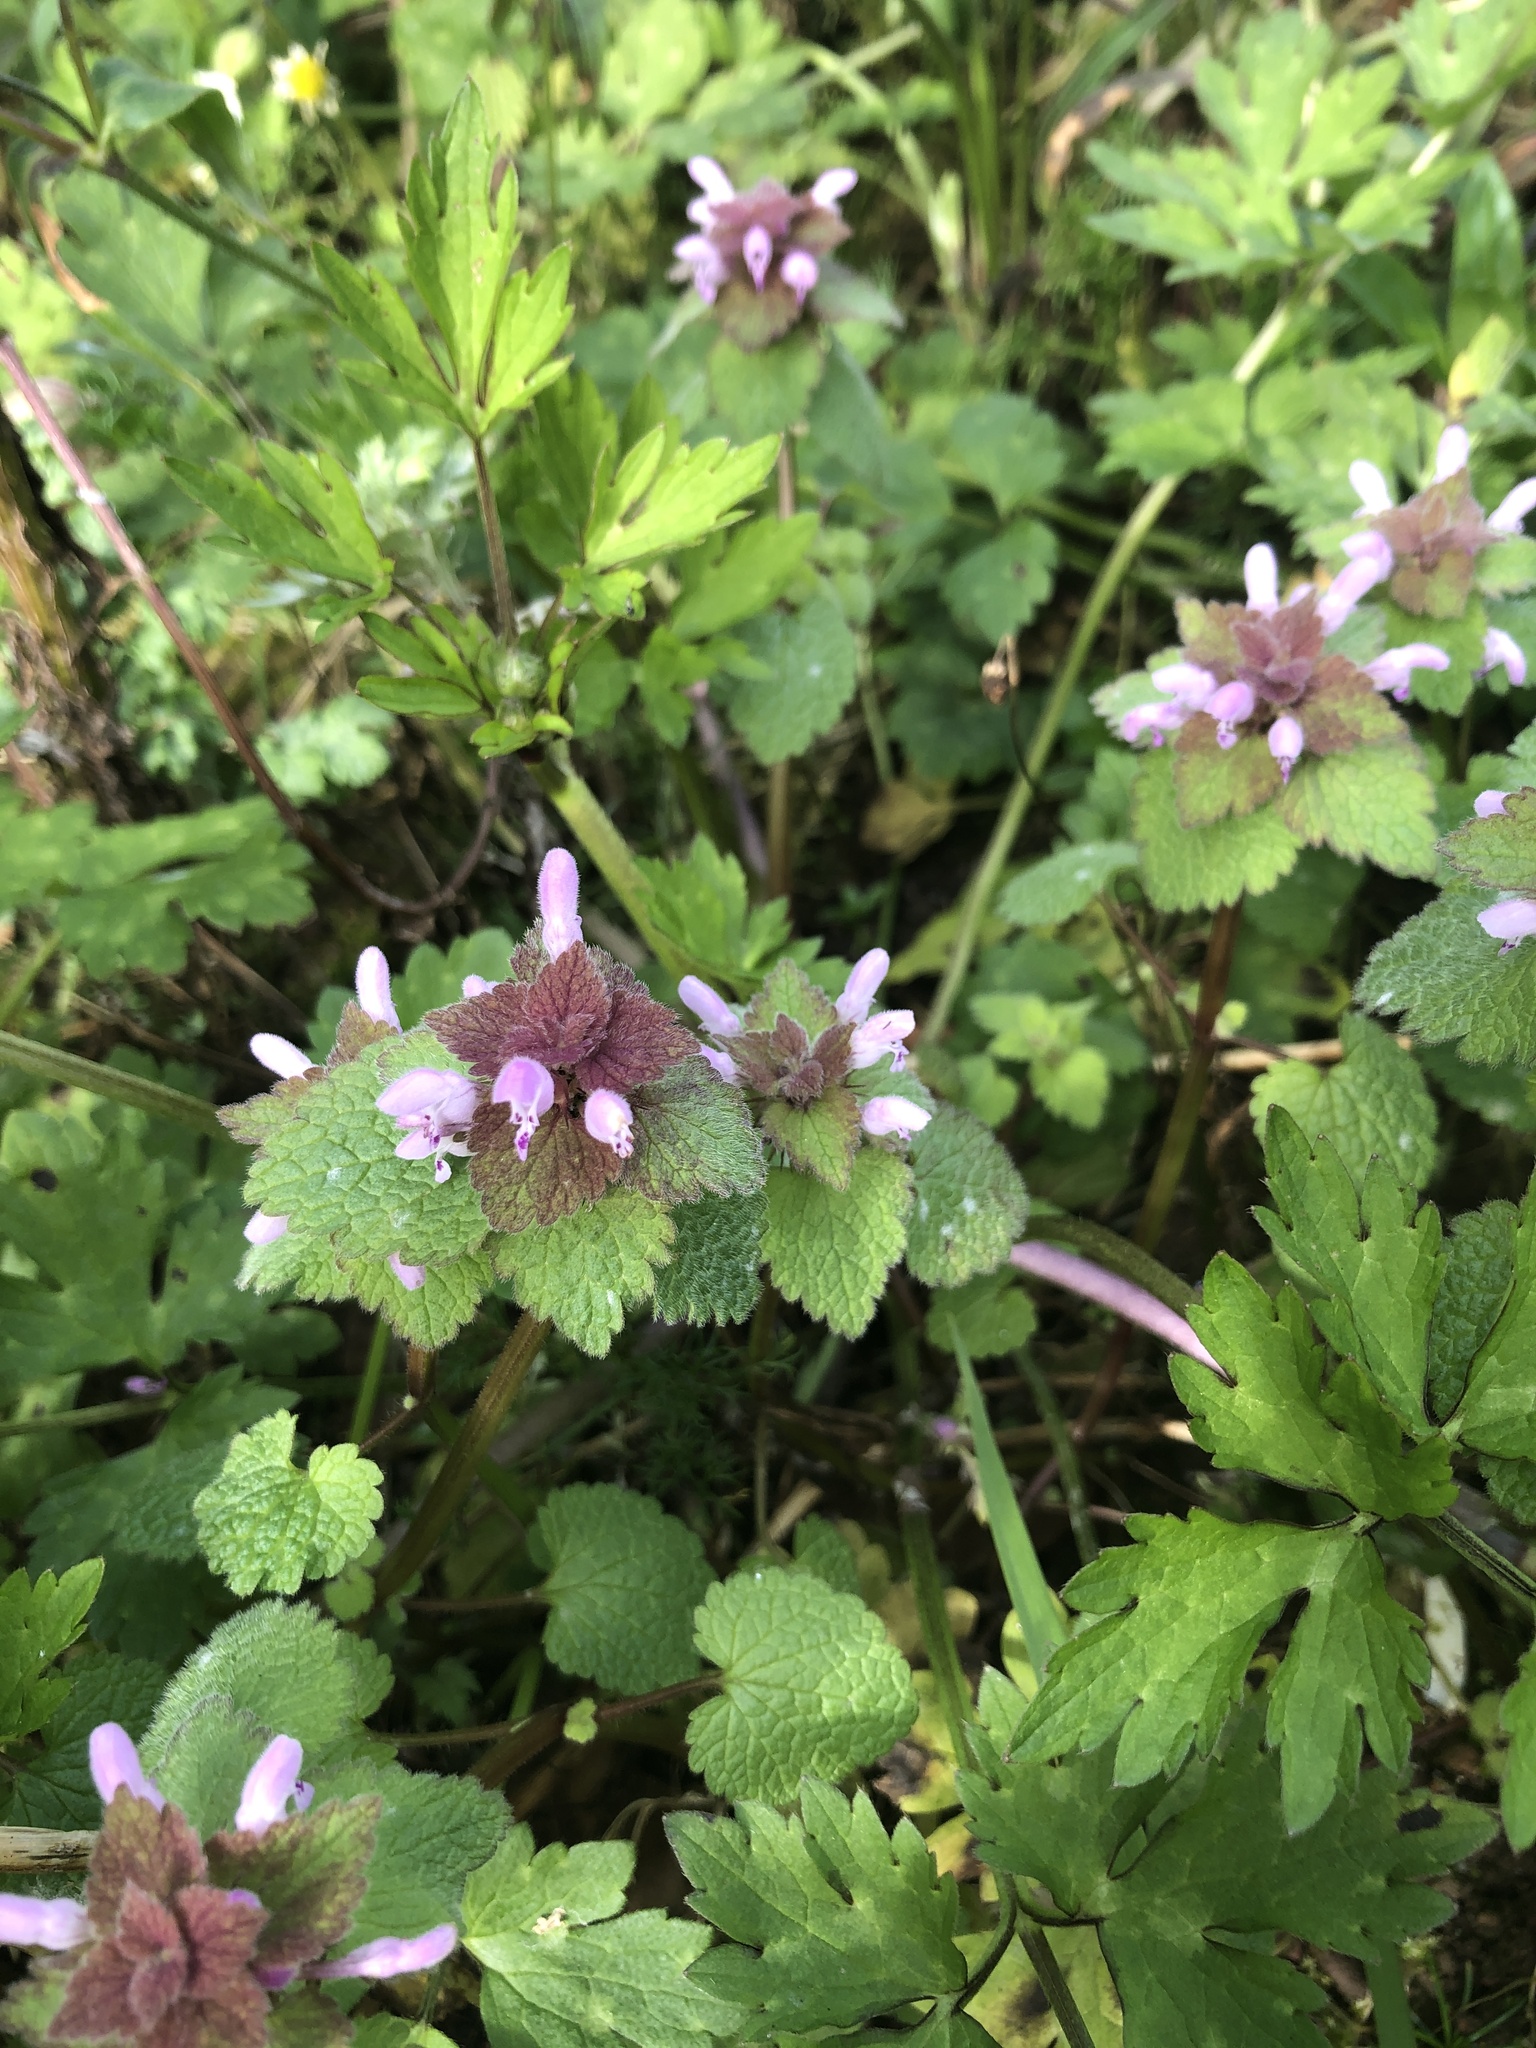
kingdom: Plantae
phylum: Tracheophyta
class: Magnoliopsida
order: Lamiales
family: Lamiaceae
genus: Lamium
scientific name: Lamium purpureum
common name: Red dead-nettle
